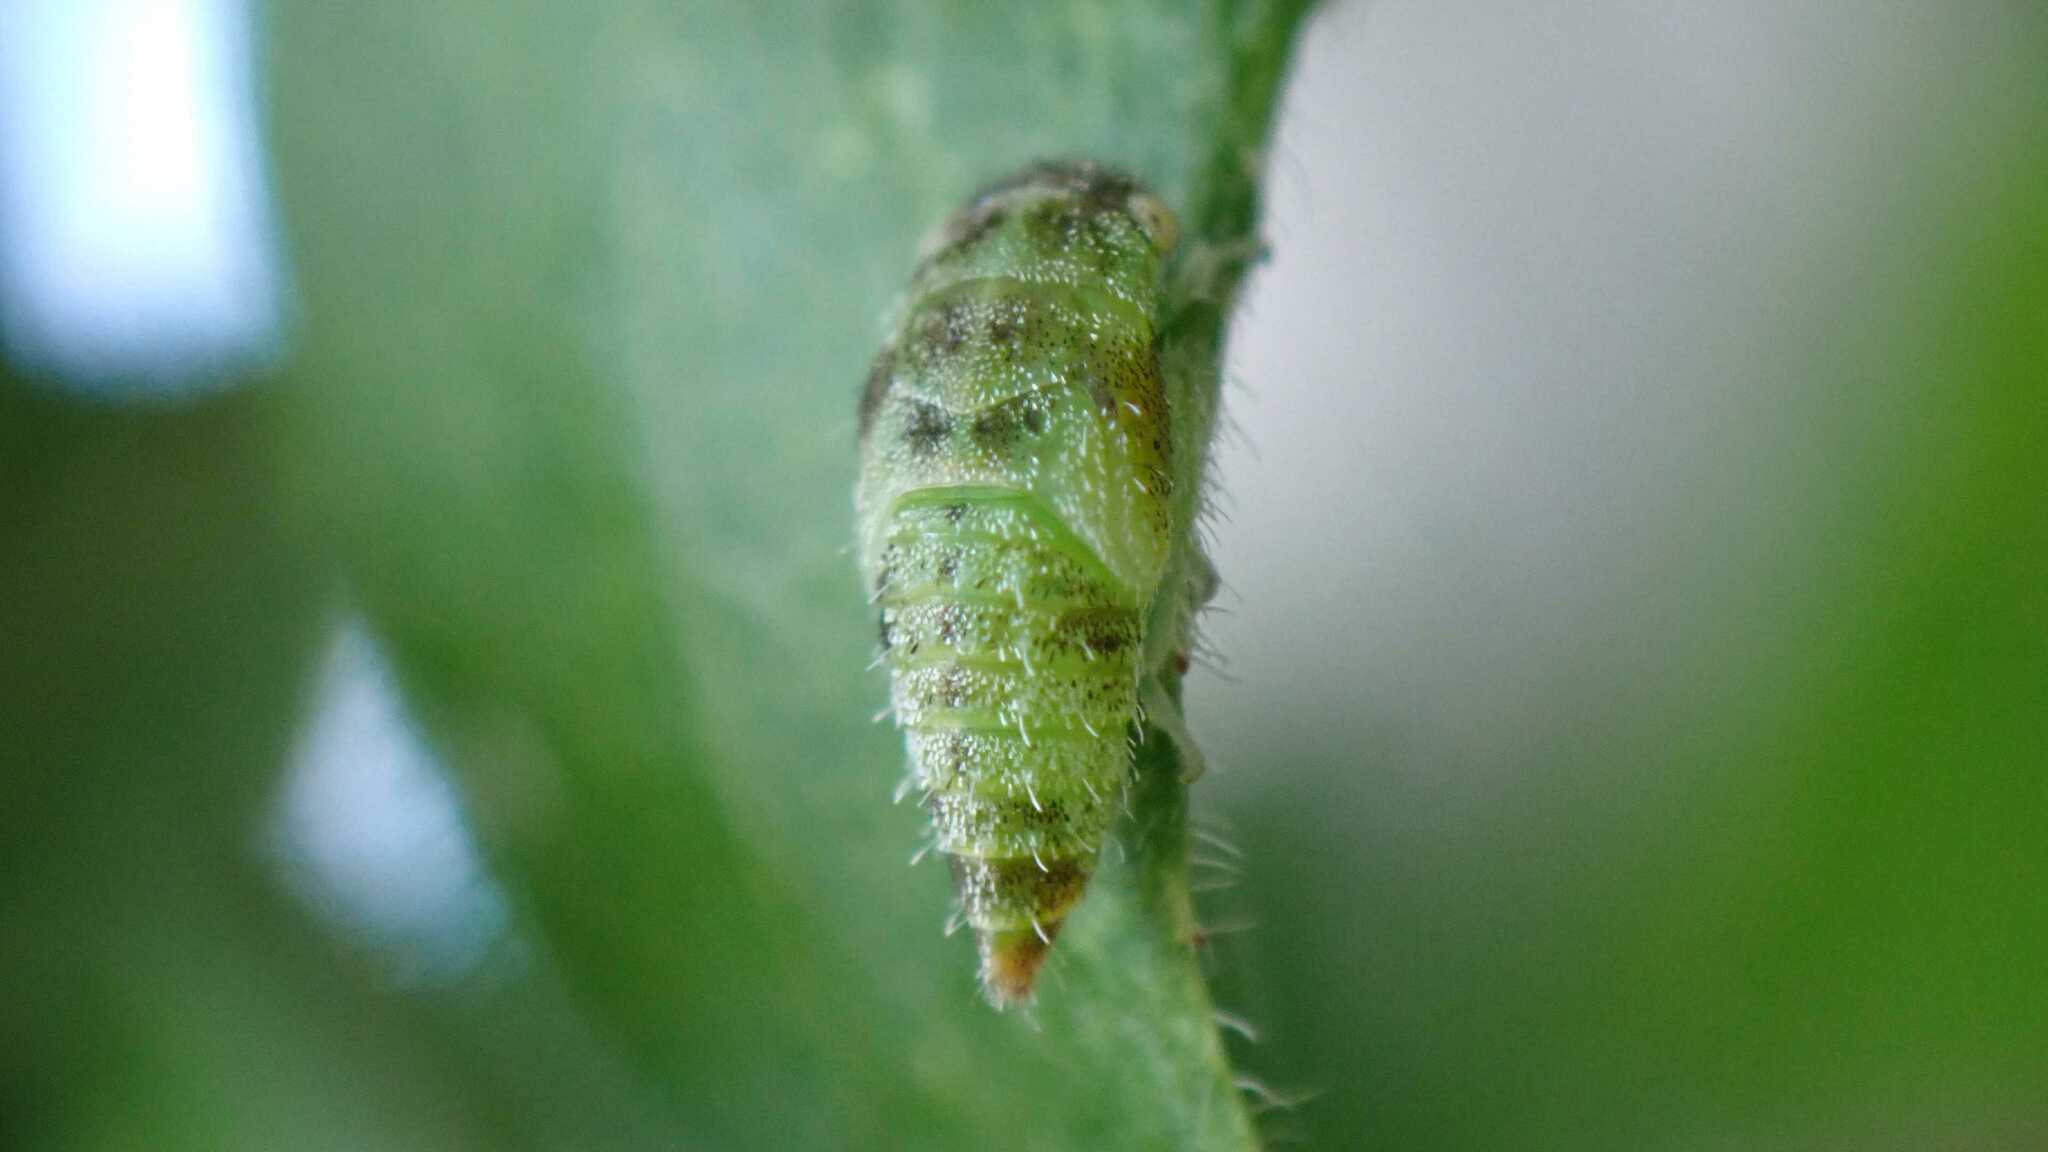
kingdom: Animalia
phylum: Arthropoda
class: Insecta
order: Hemiptera
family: Cicadellidae
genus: Stragania
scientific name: Stragania apicalis
